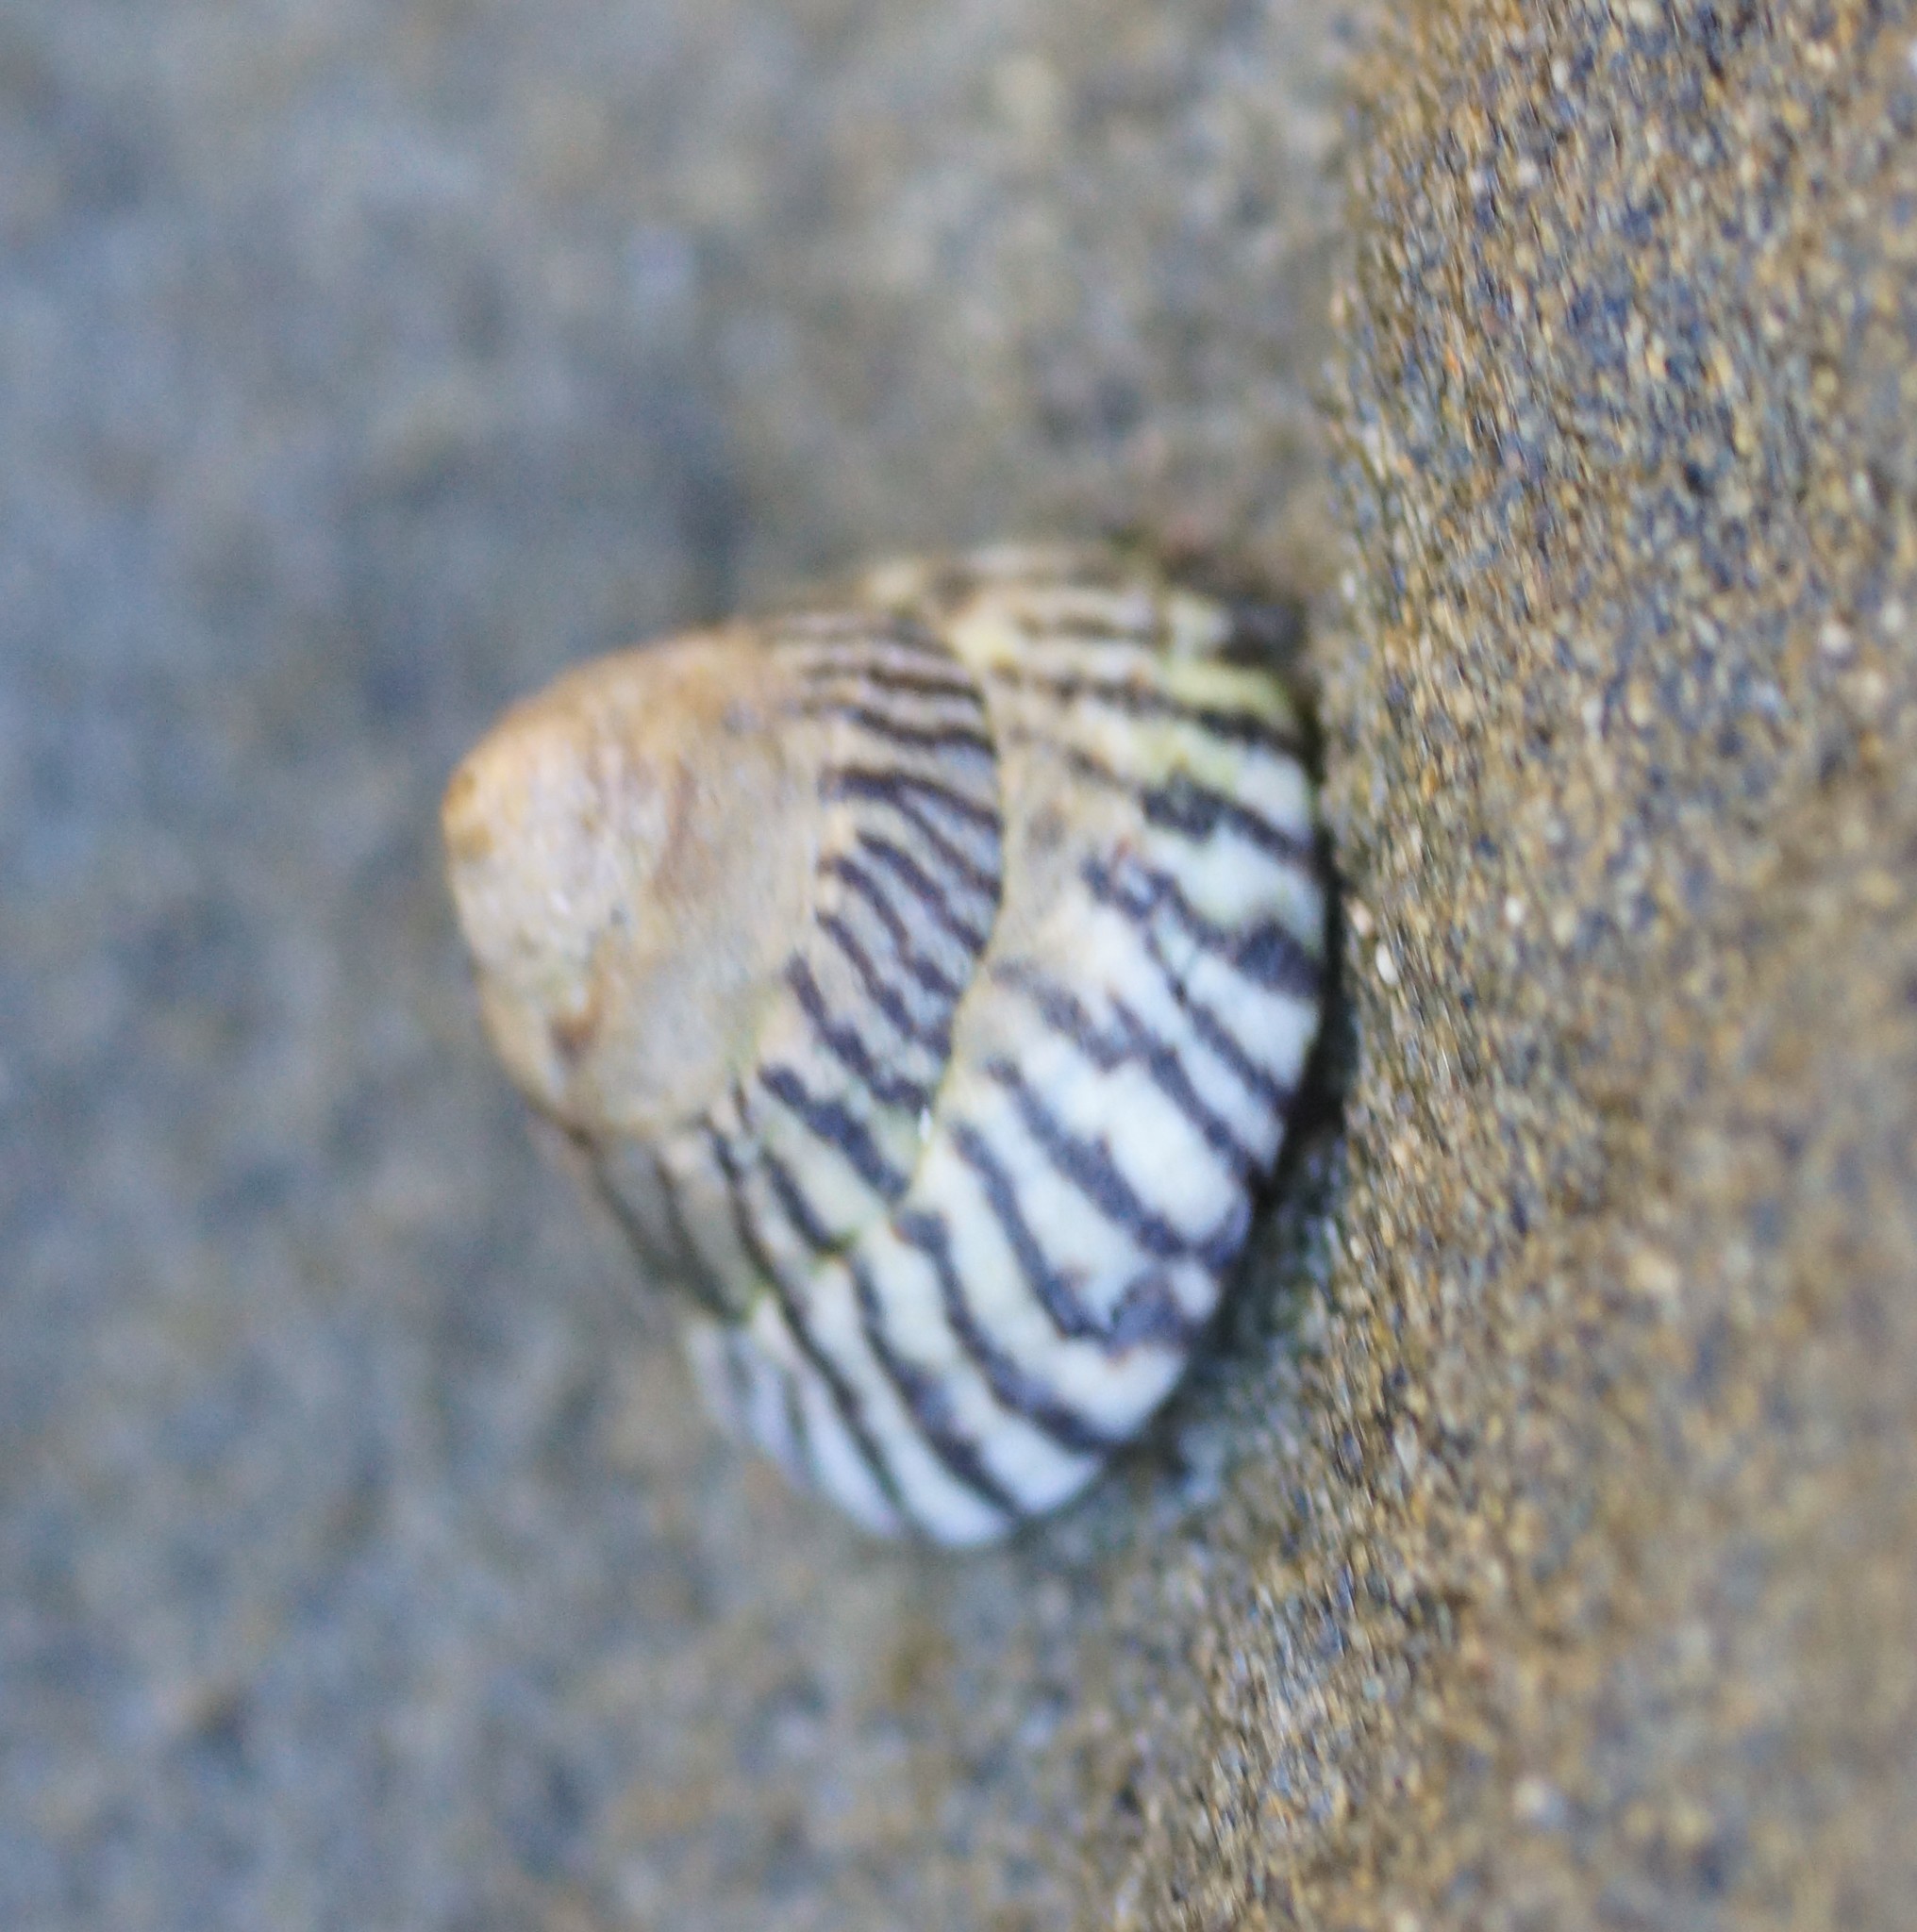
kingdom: Animalia
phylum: Mollusca
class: Gastropoda
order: Littorinimorpha
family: Littorinidae
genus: Bembicium
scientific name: Bembicium nanum
